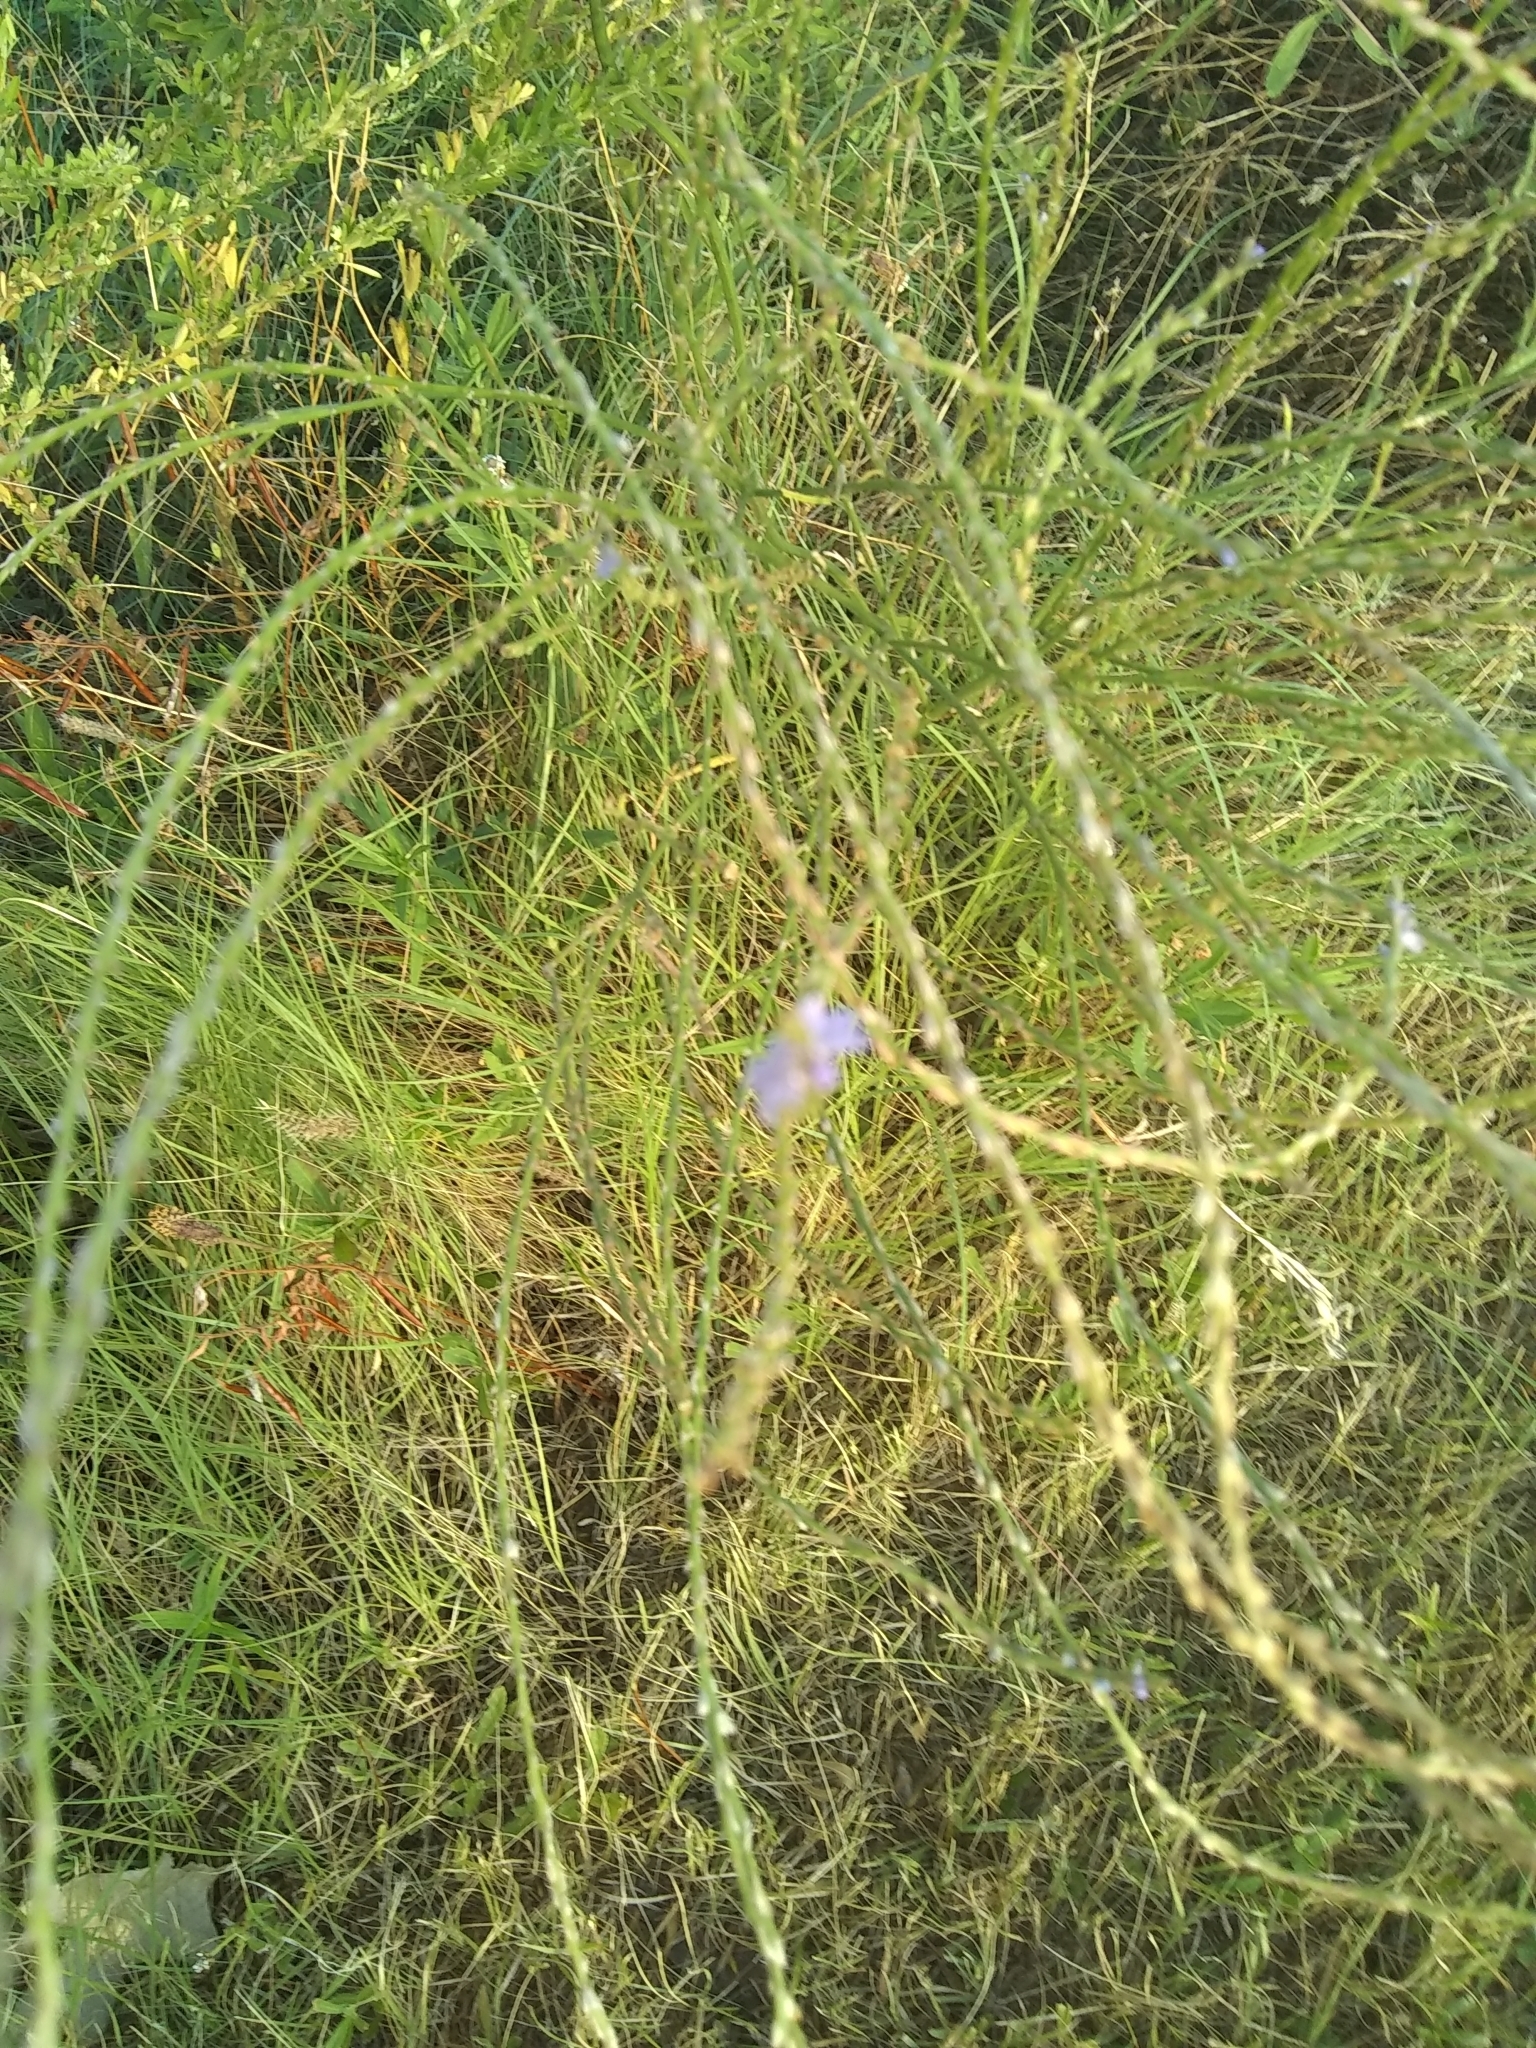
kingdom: Plantae
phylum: Tracheophyta
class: Magnoliopsida
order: Lamiales
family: Verbenaceae
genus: Verbena
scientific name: Verbena halei
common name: Texas vervain
